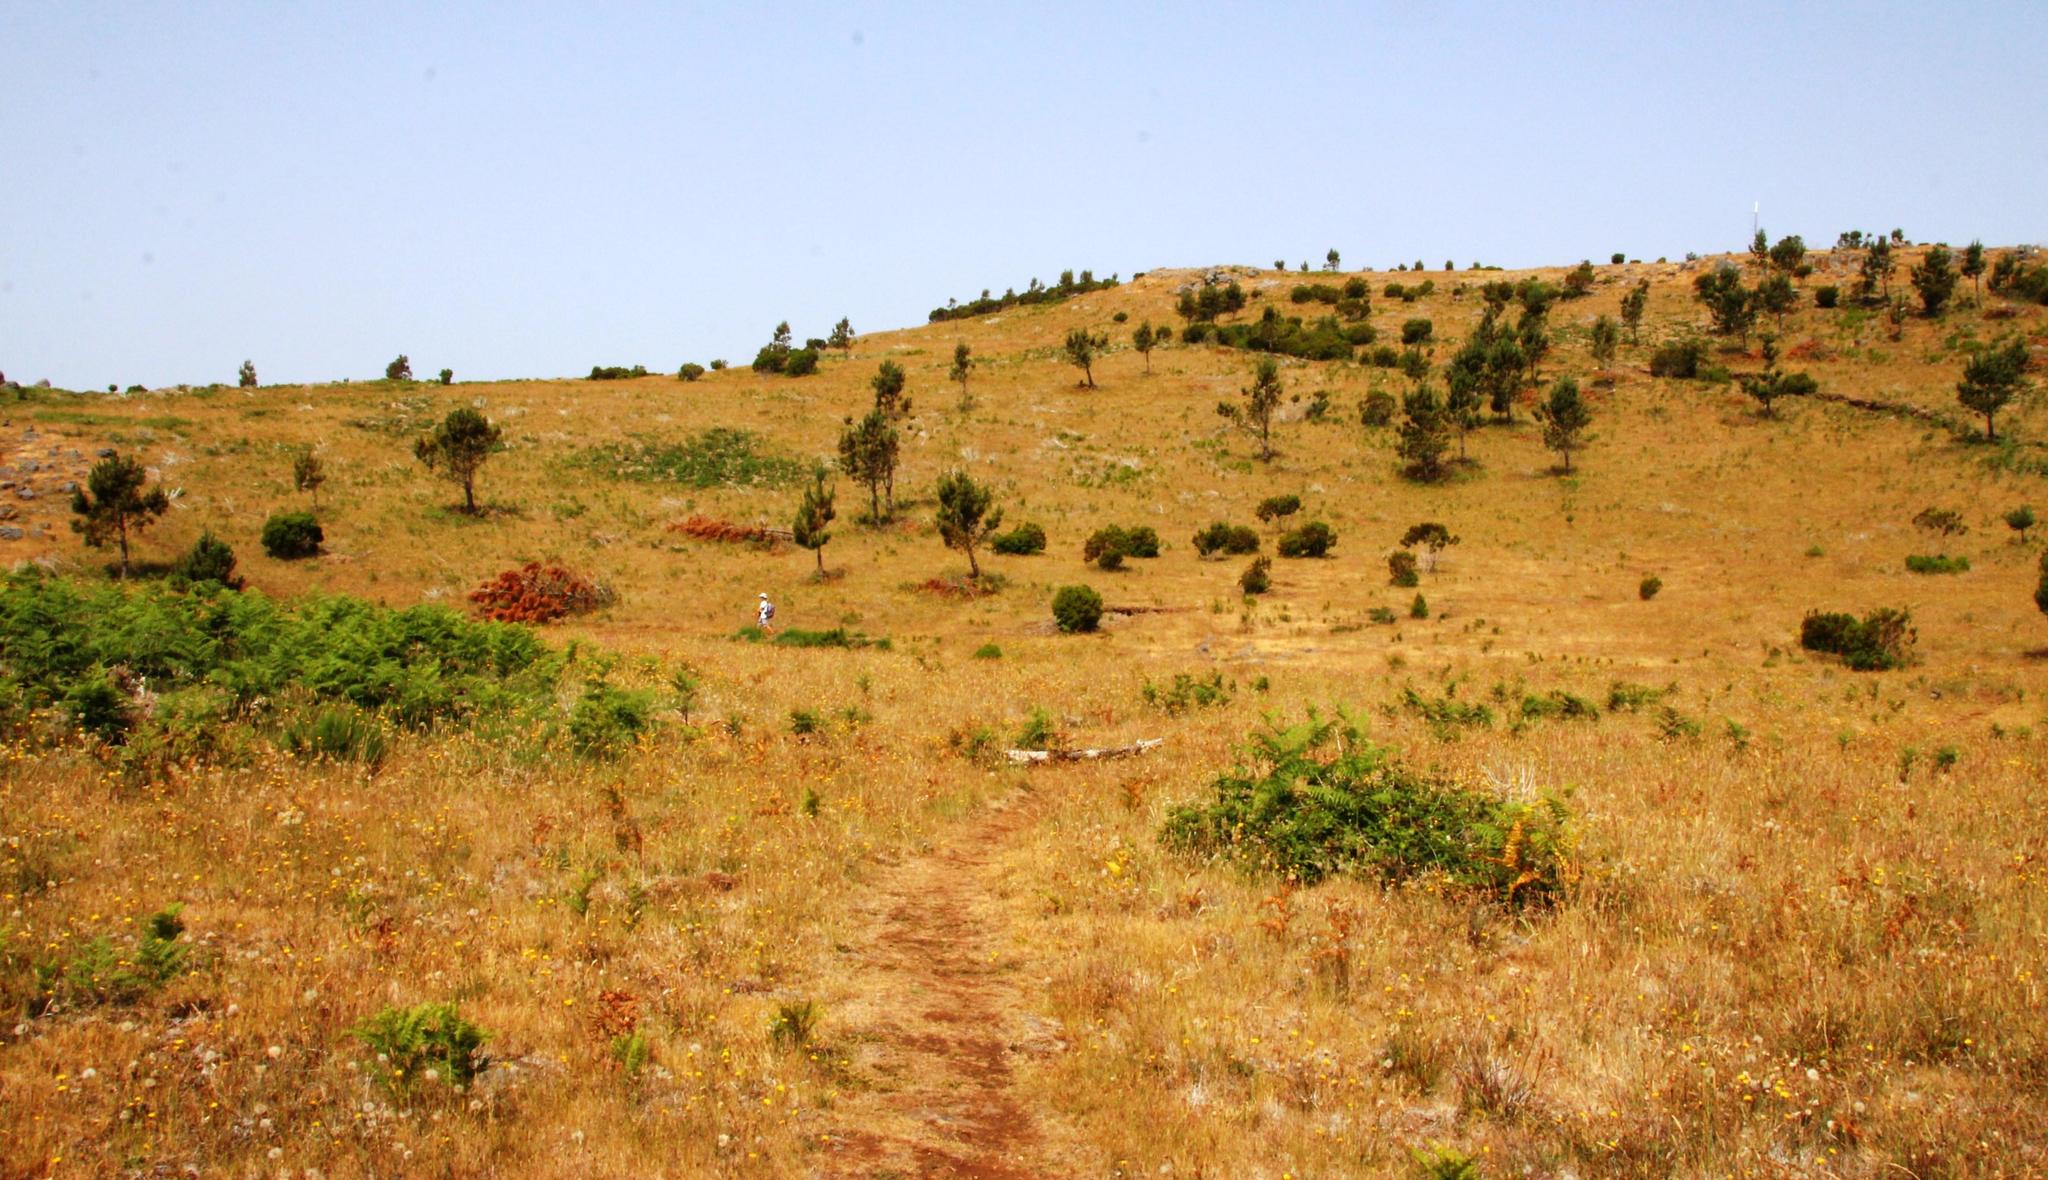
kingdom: Plantae
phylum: Tracheophyta
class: Pinopsida
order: Pinales
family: Pinaceae
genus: Pinus
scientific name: Pinus pinaster
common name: Maritime pine
